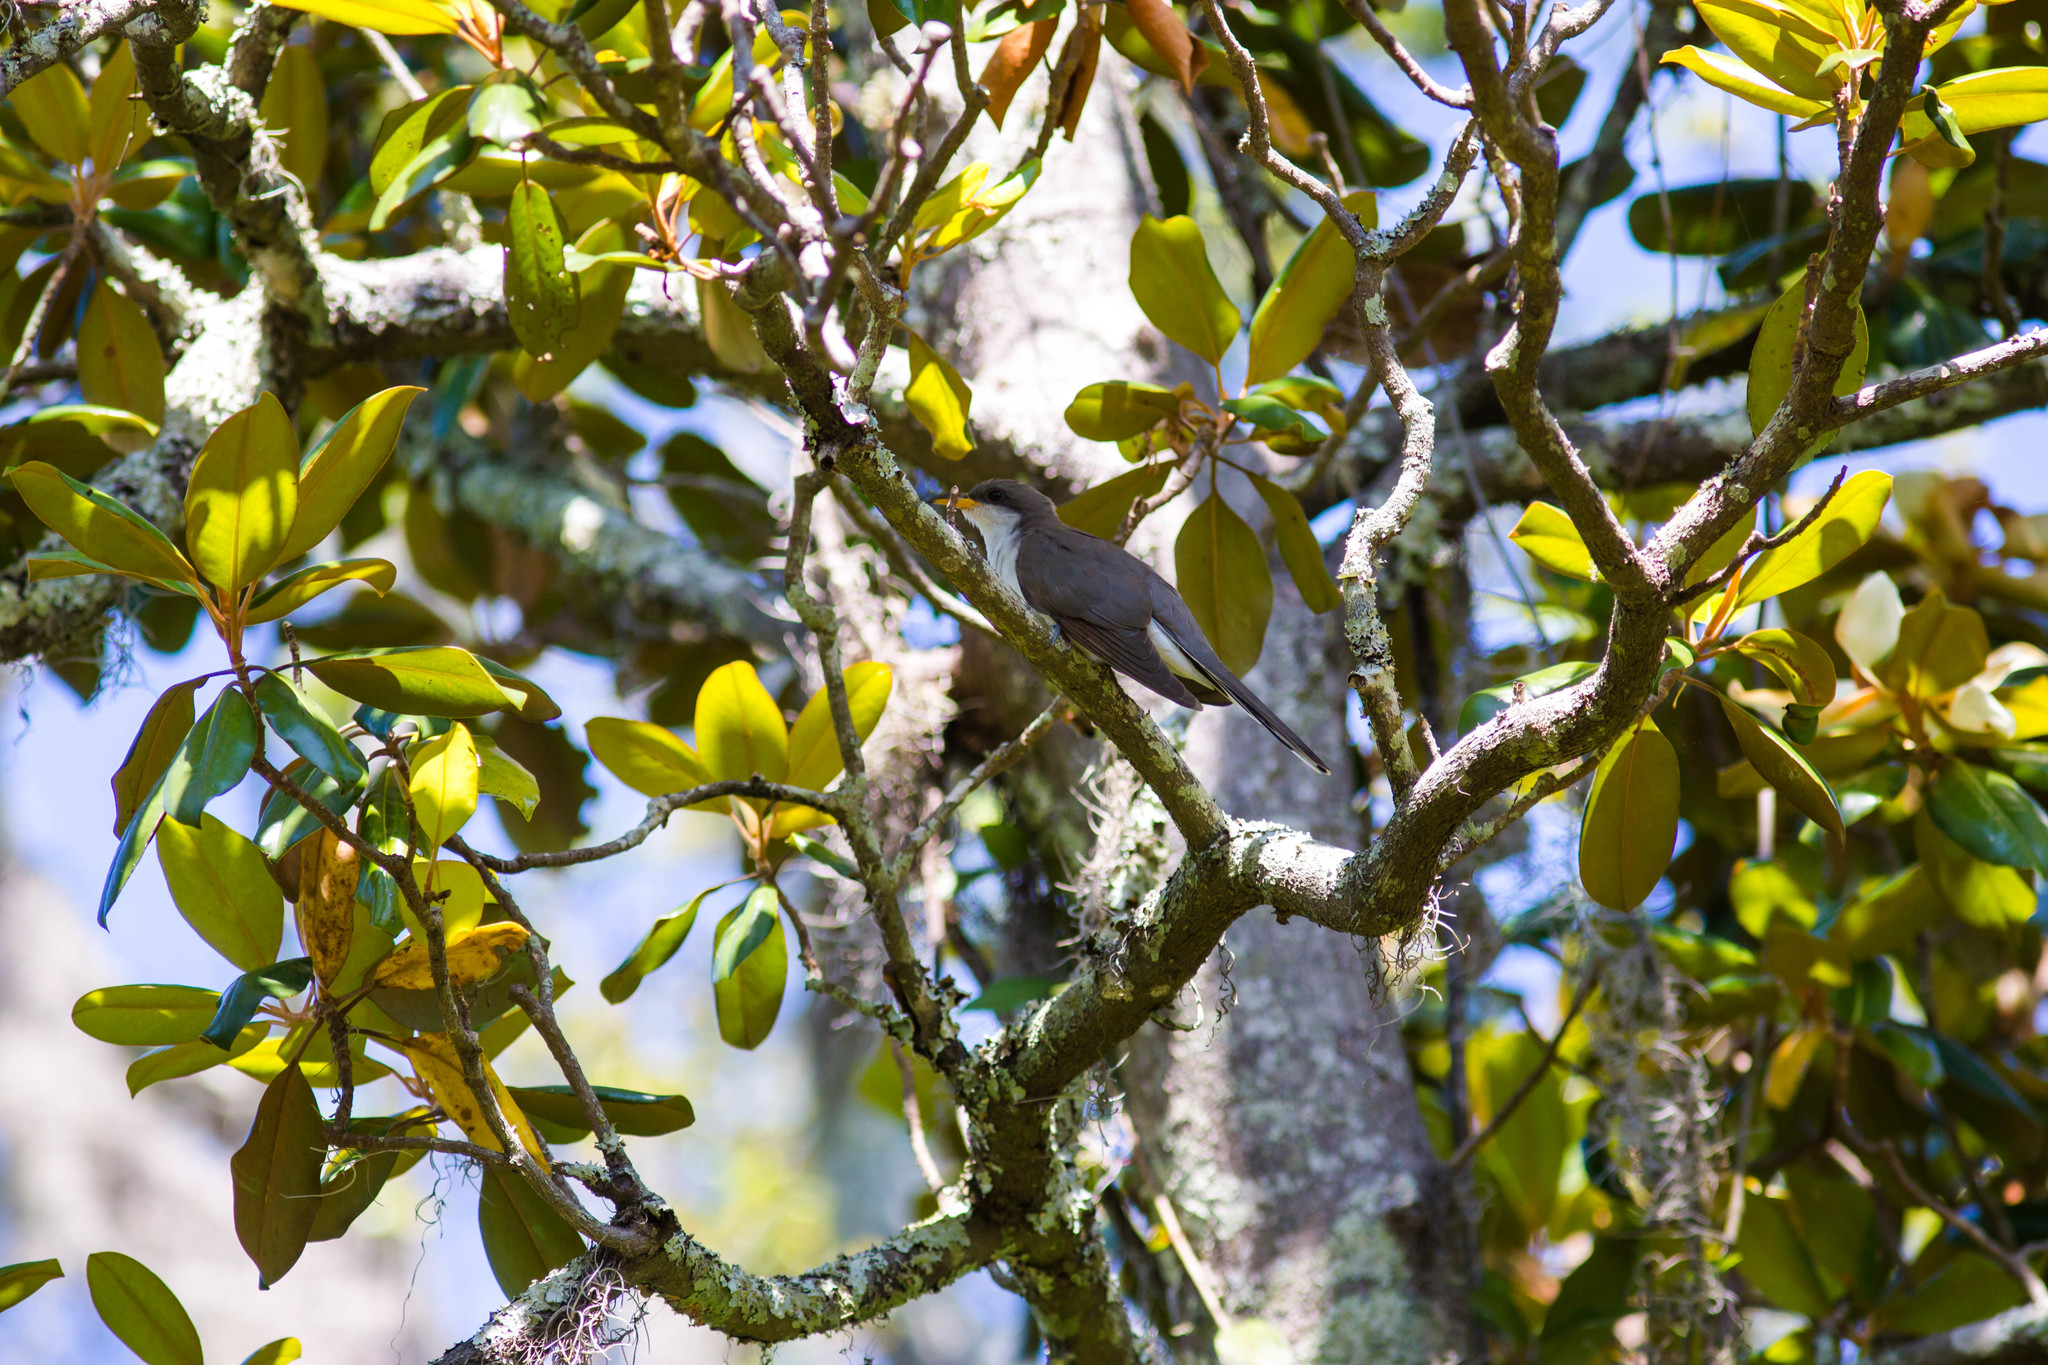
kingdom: Animalia
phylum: Chordata
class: Aves
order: Cuculiformes
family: Cuculidae
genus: Coccyzus
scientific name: Coccyzus americanus
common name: Yellow-billed cuckoo
